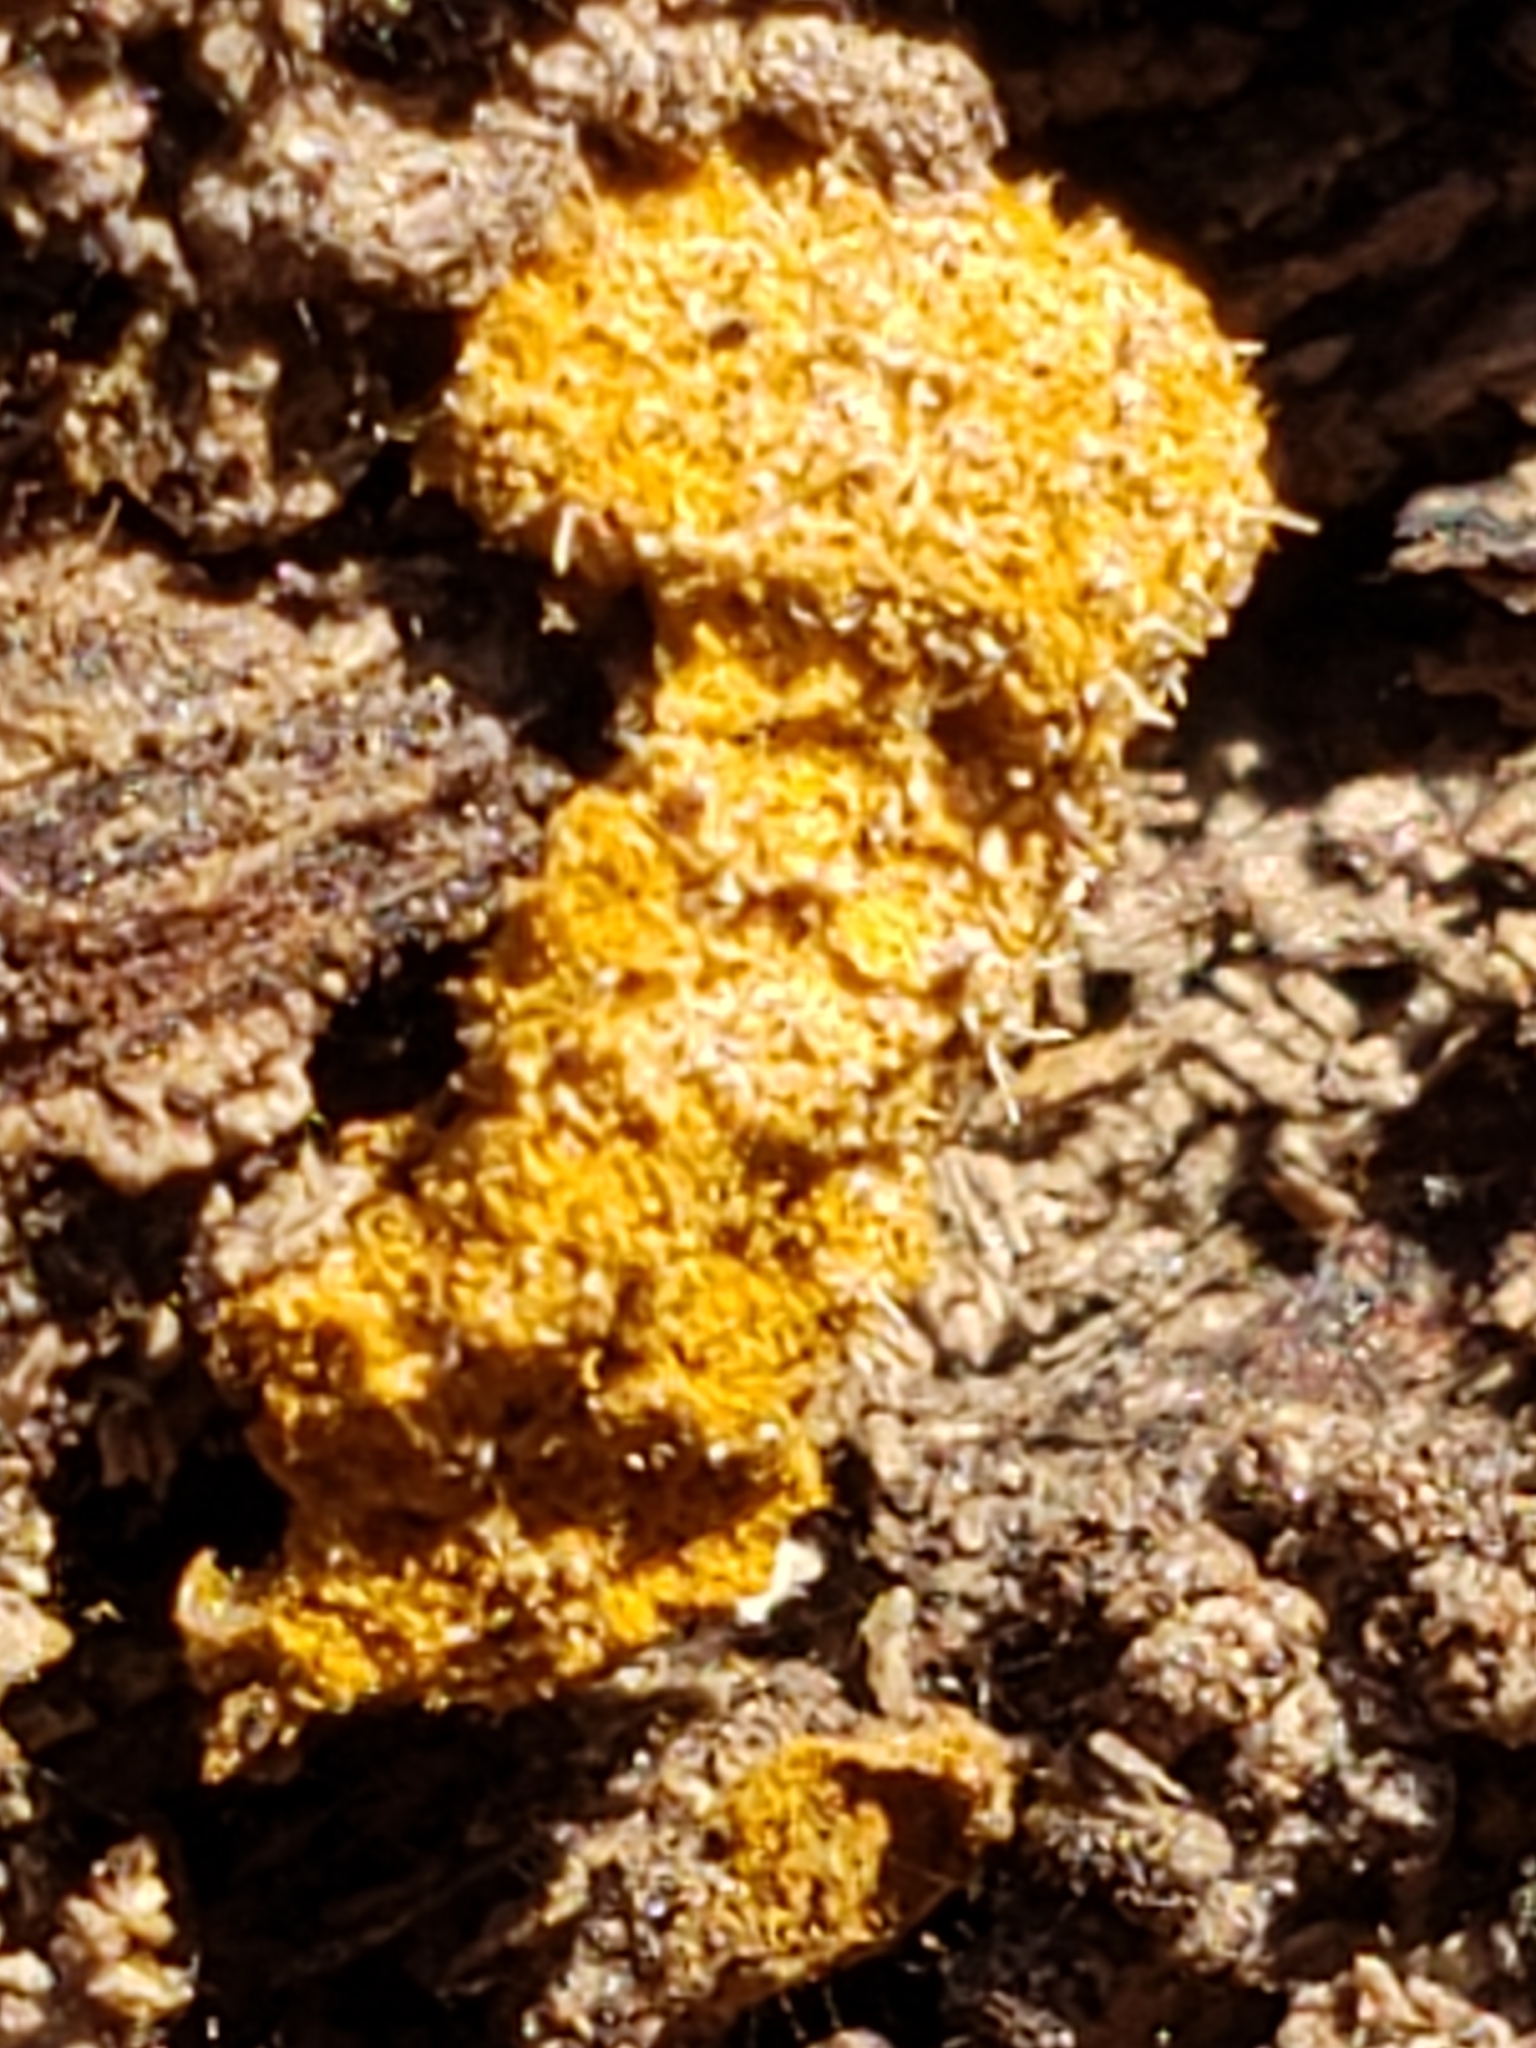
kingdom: Fungi
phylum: Ascomycota
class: Sordariomycetes
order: Hypocreales
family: Ophiocordycipitaceae
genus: Polycephalomyces
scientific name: Polycephalomyces tomentosus
